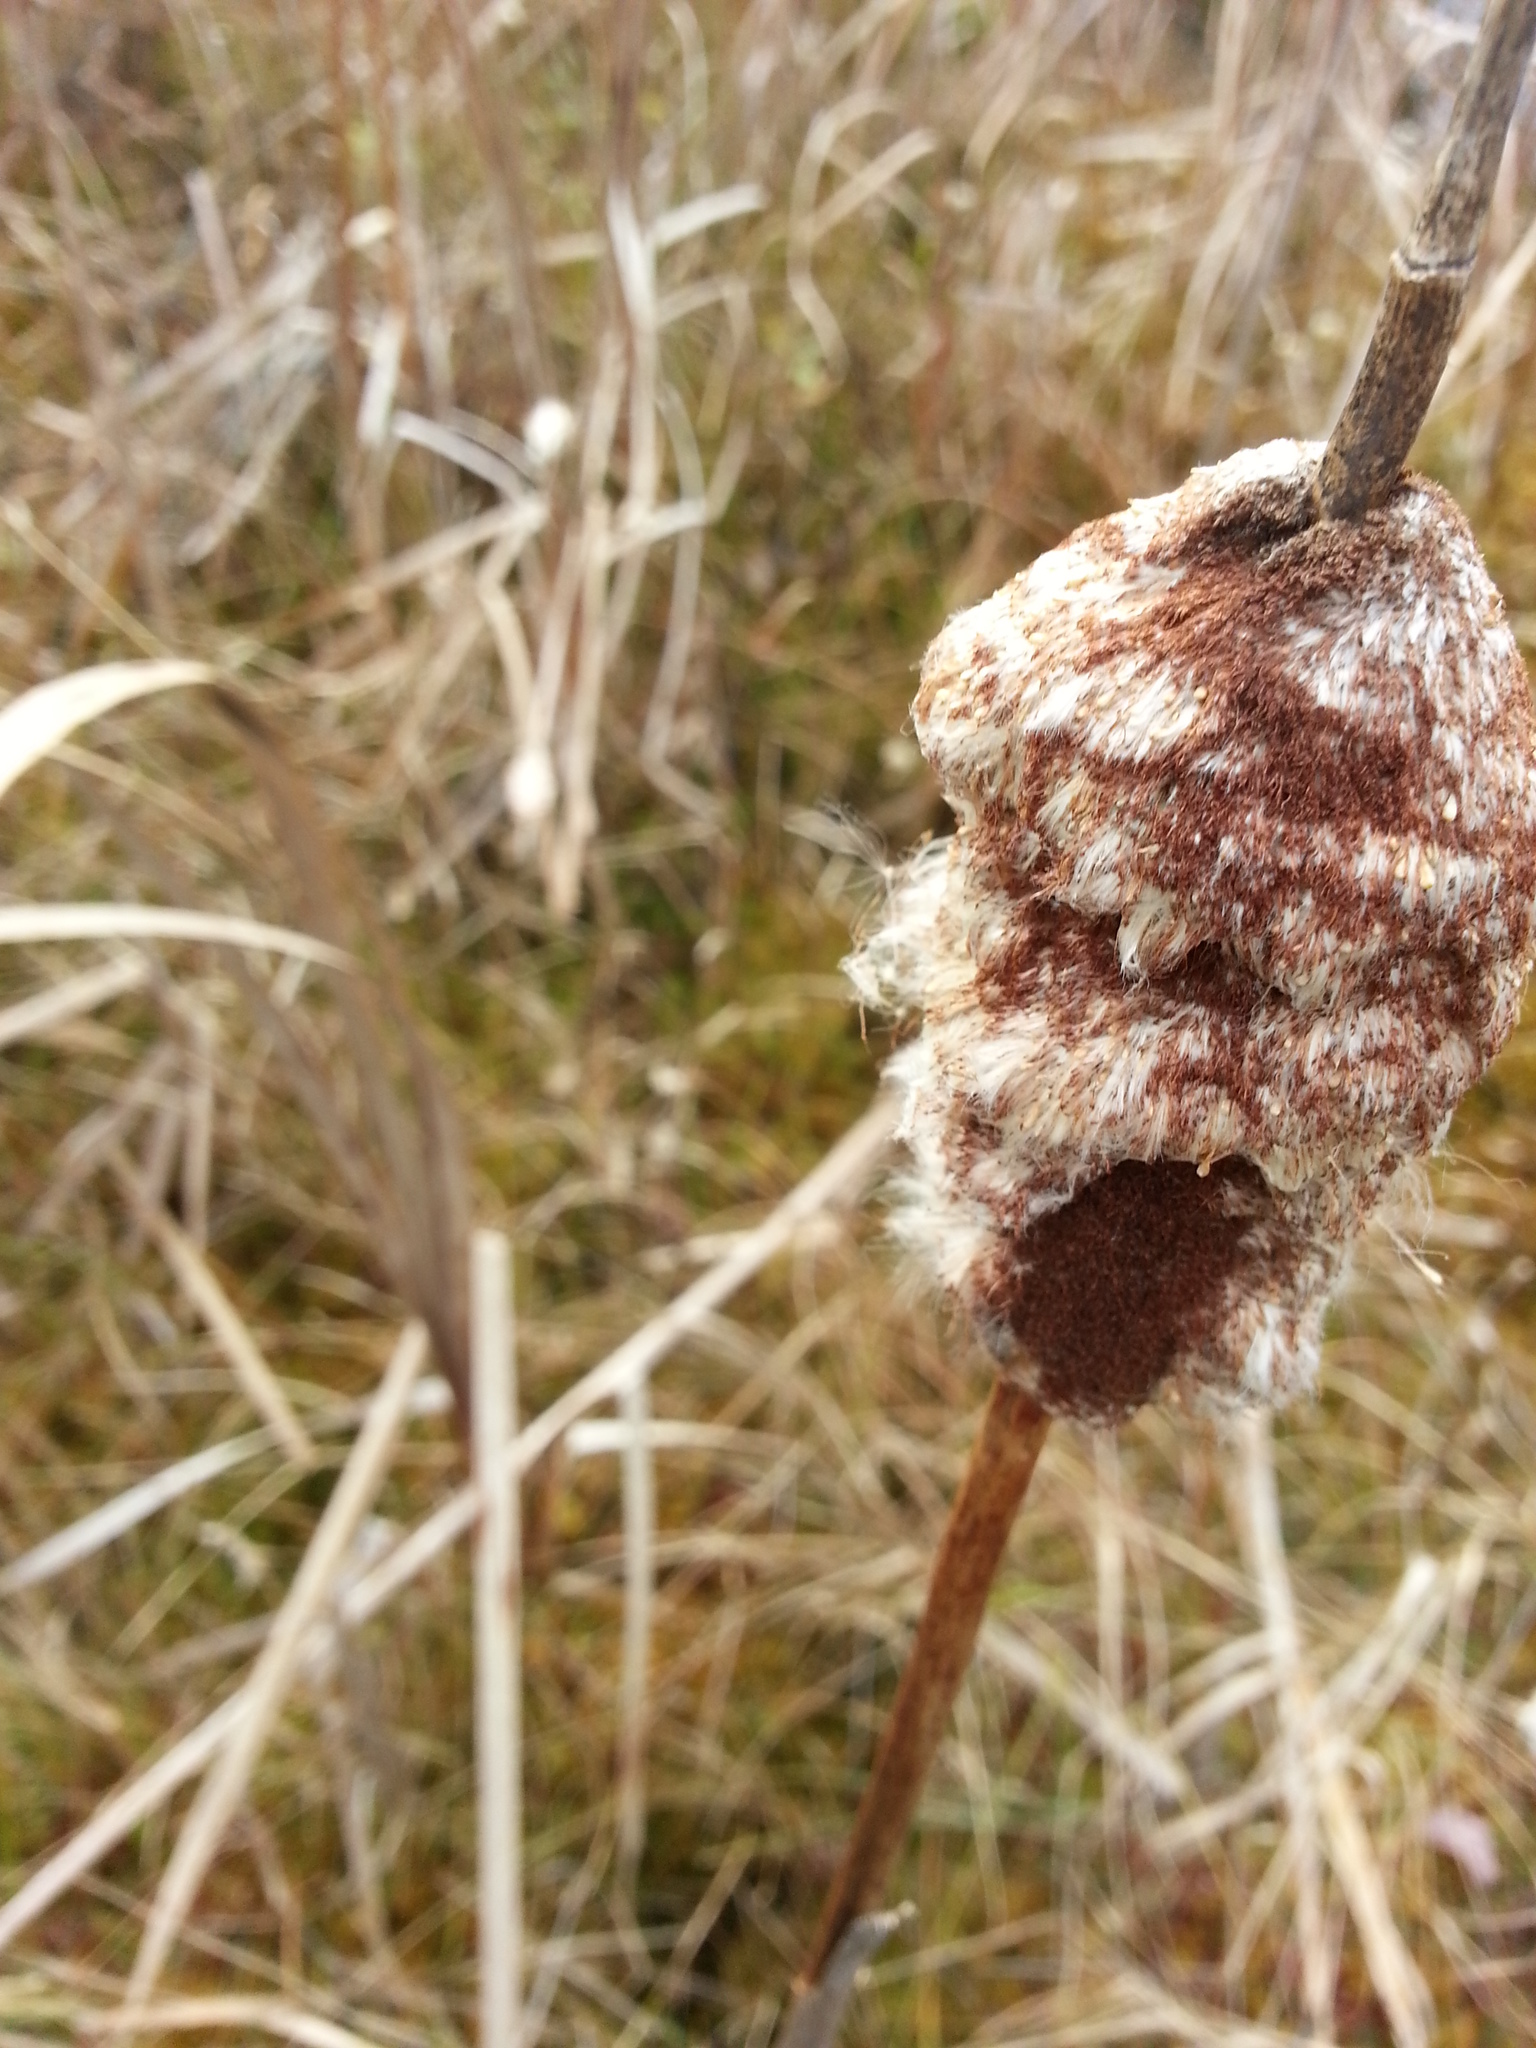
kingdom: Plantae
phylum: Tracheophyta
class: Liliopsida
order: Poales
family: Typhaceae
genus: Typha
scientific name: Typha latifolia
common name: Broadleaf cattail
